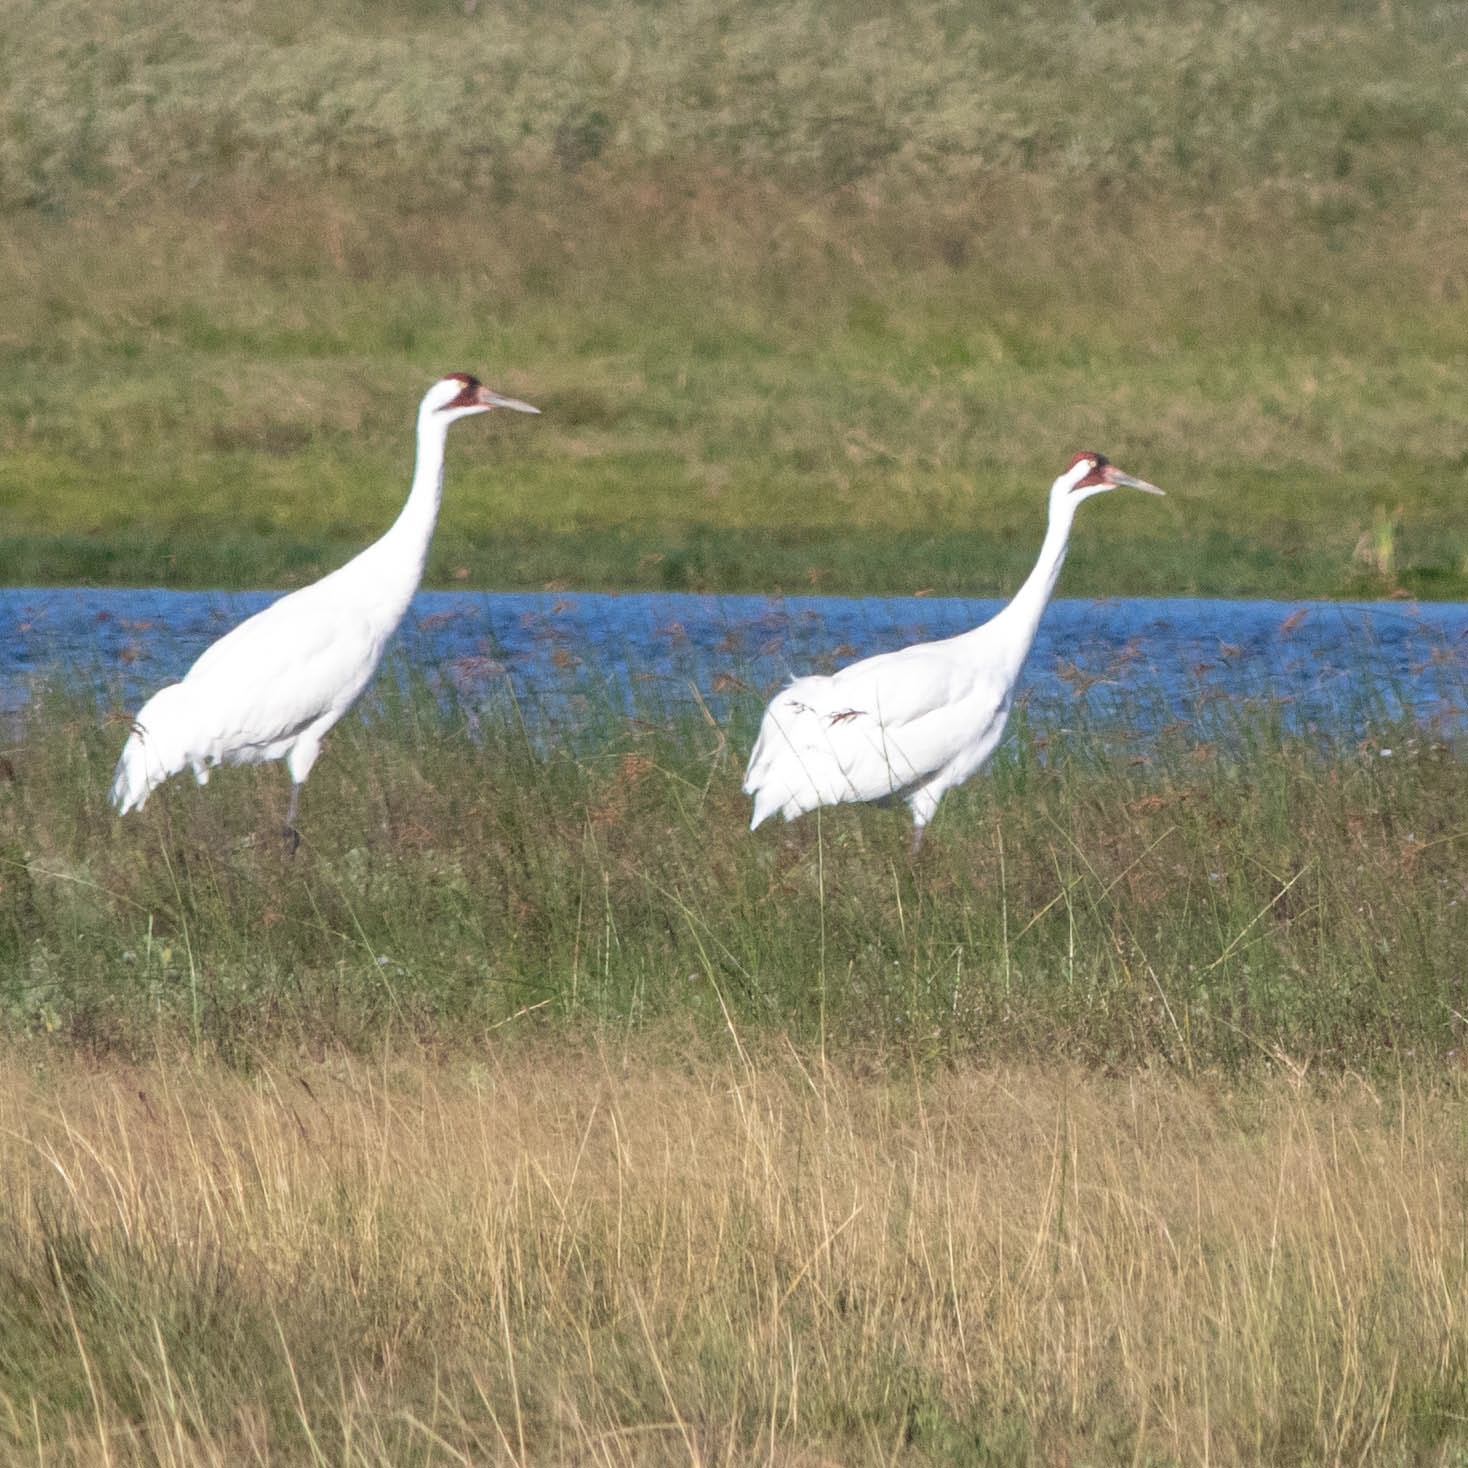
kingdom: Animalia
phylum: Chordata
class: Aves
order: Gruiformes
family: Gruidae
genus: Grus
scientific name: Grus americana
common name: Whooping crane
